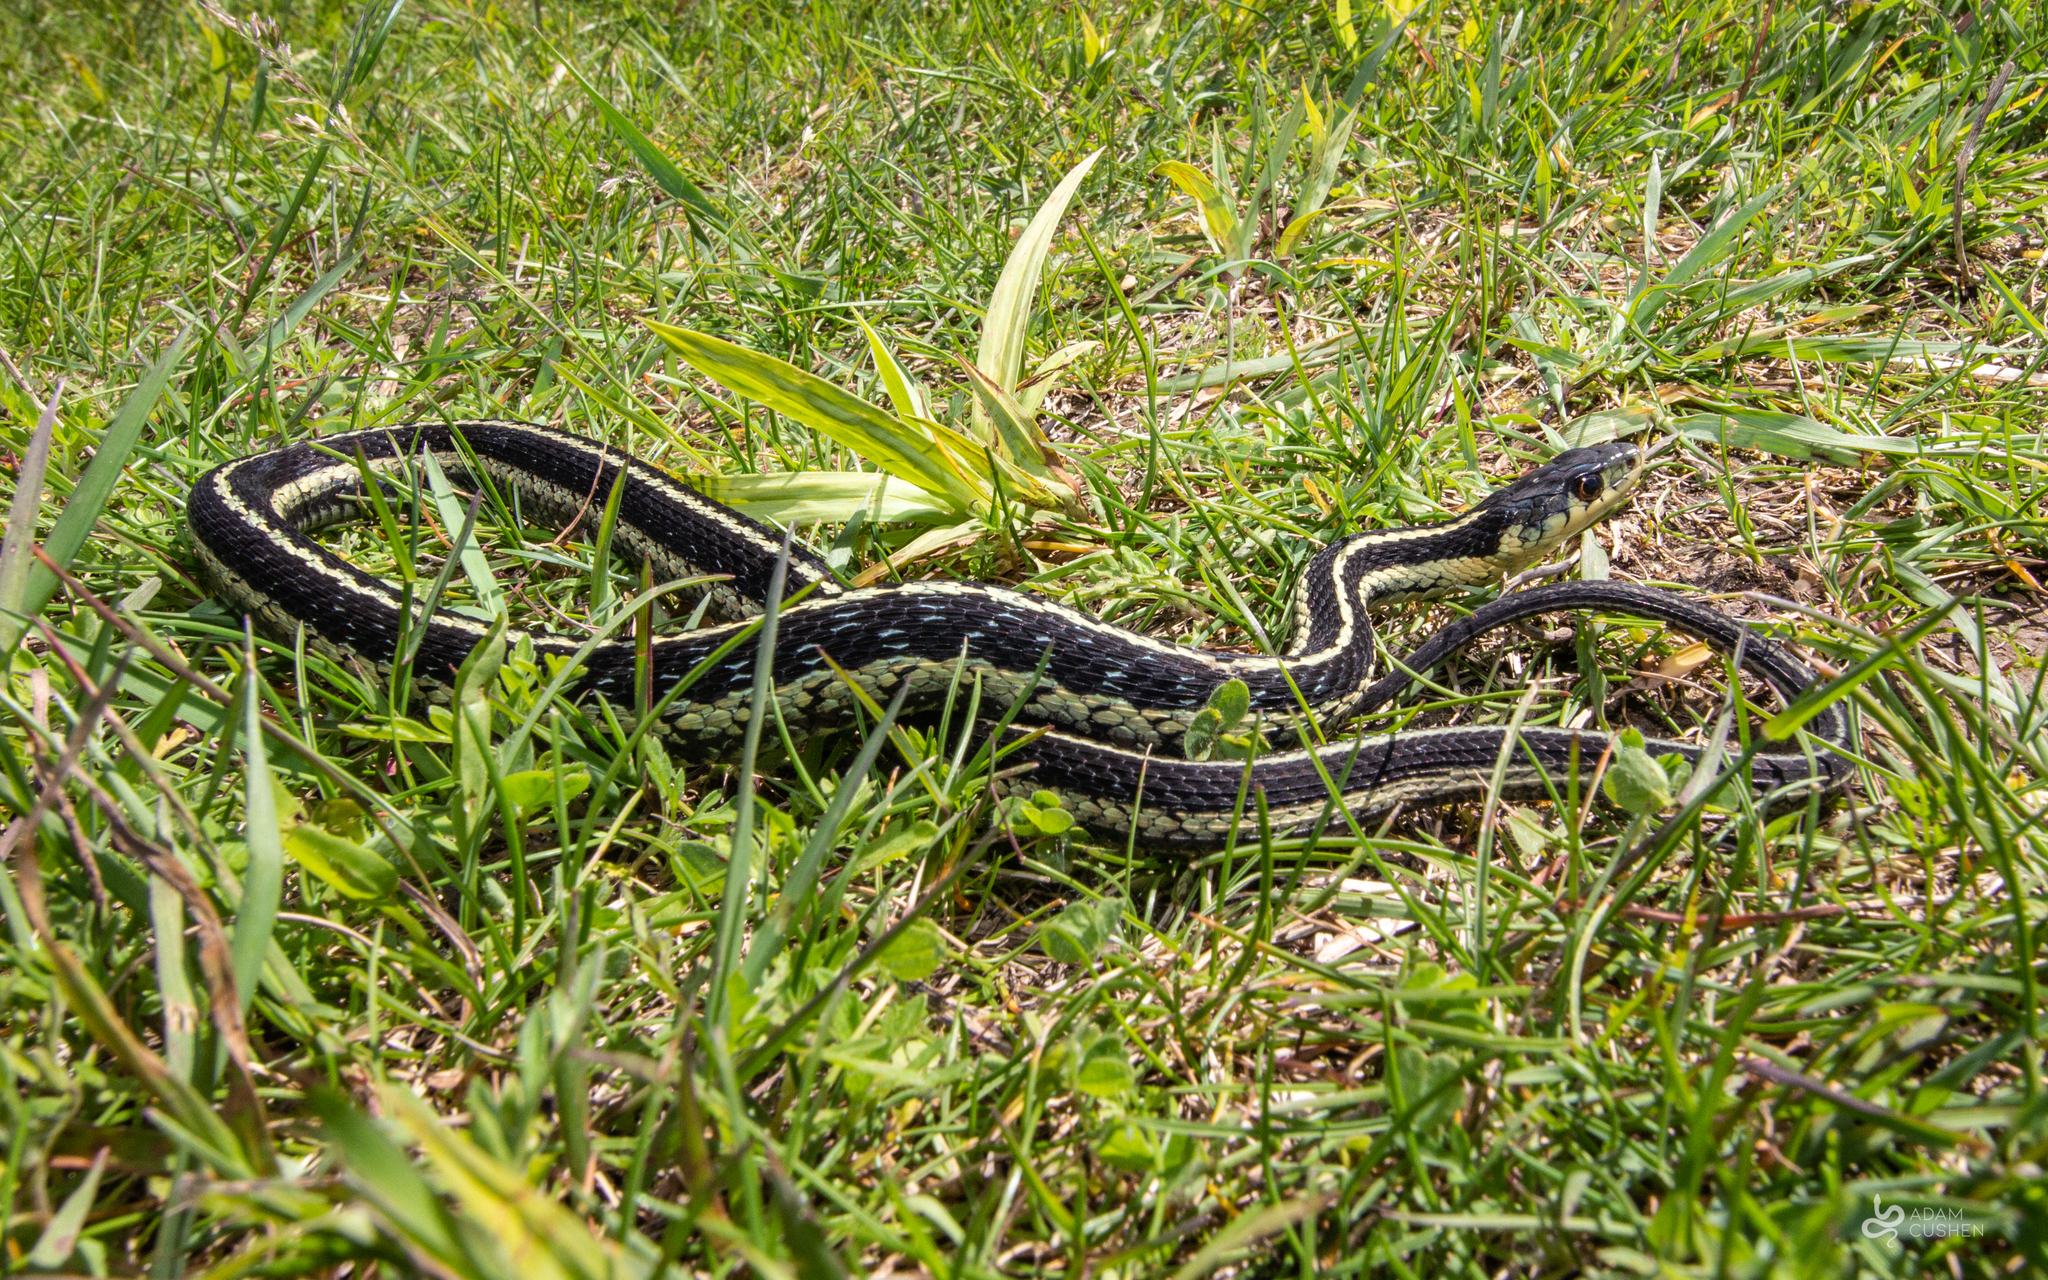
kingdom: Animalia
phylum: Chordata
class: Squamata
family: Colubridae
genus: Thamnophis
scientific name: Thamnophis sirtalis
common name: Common garter snake
